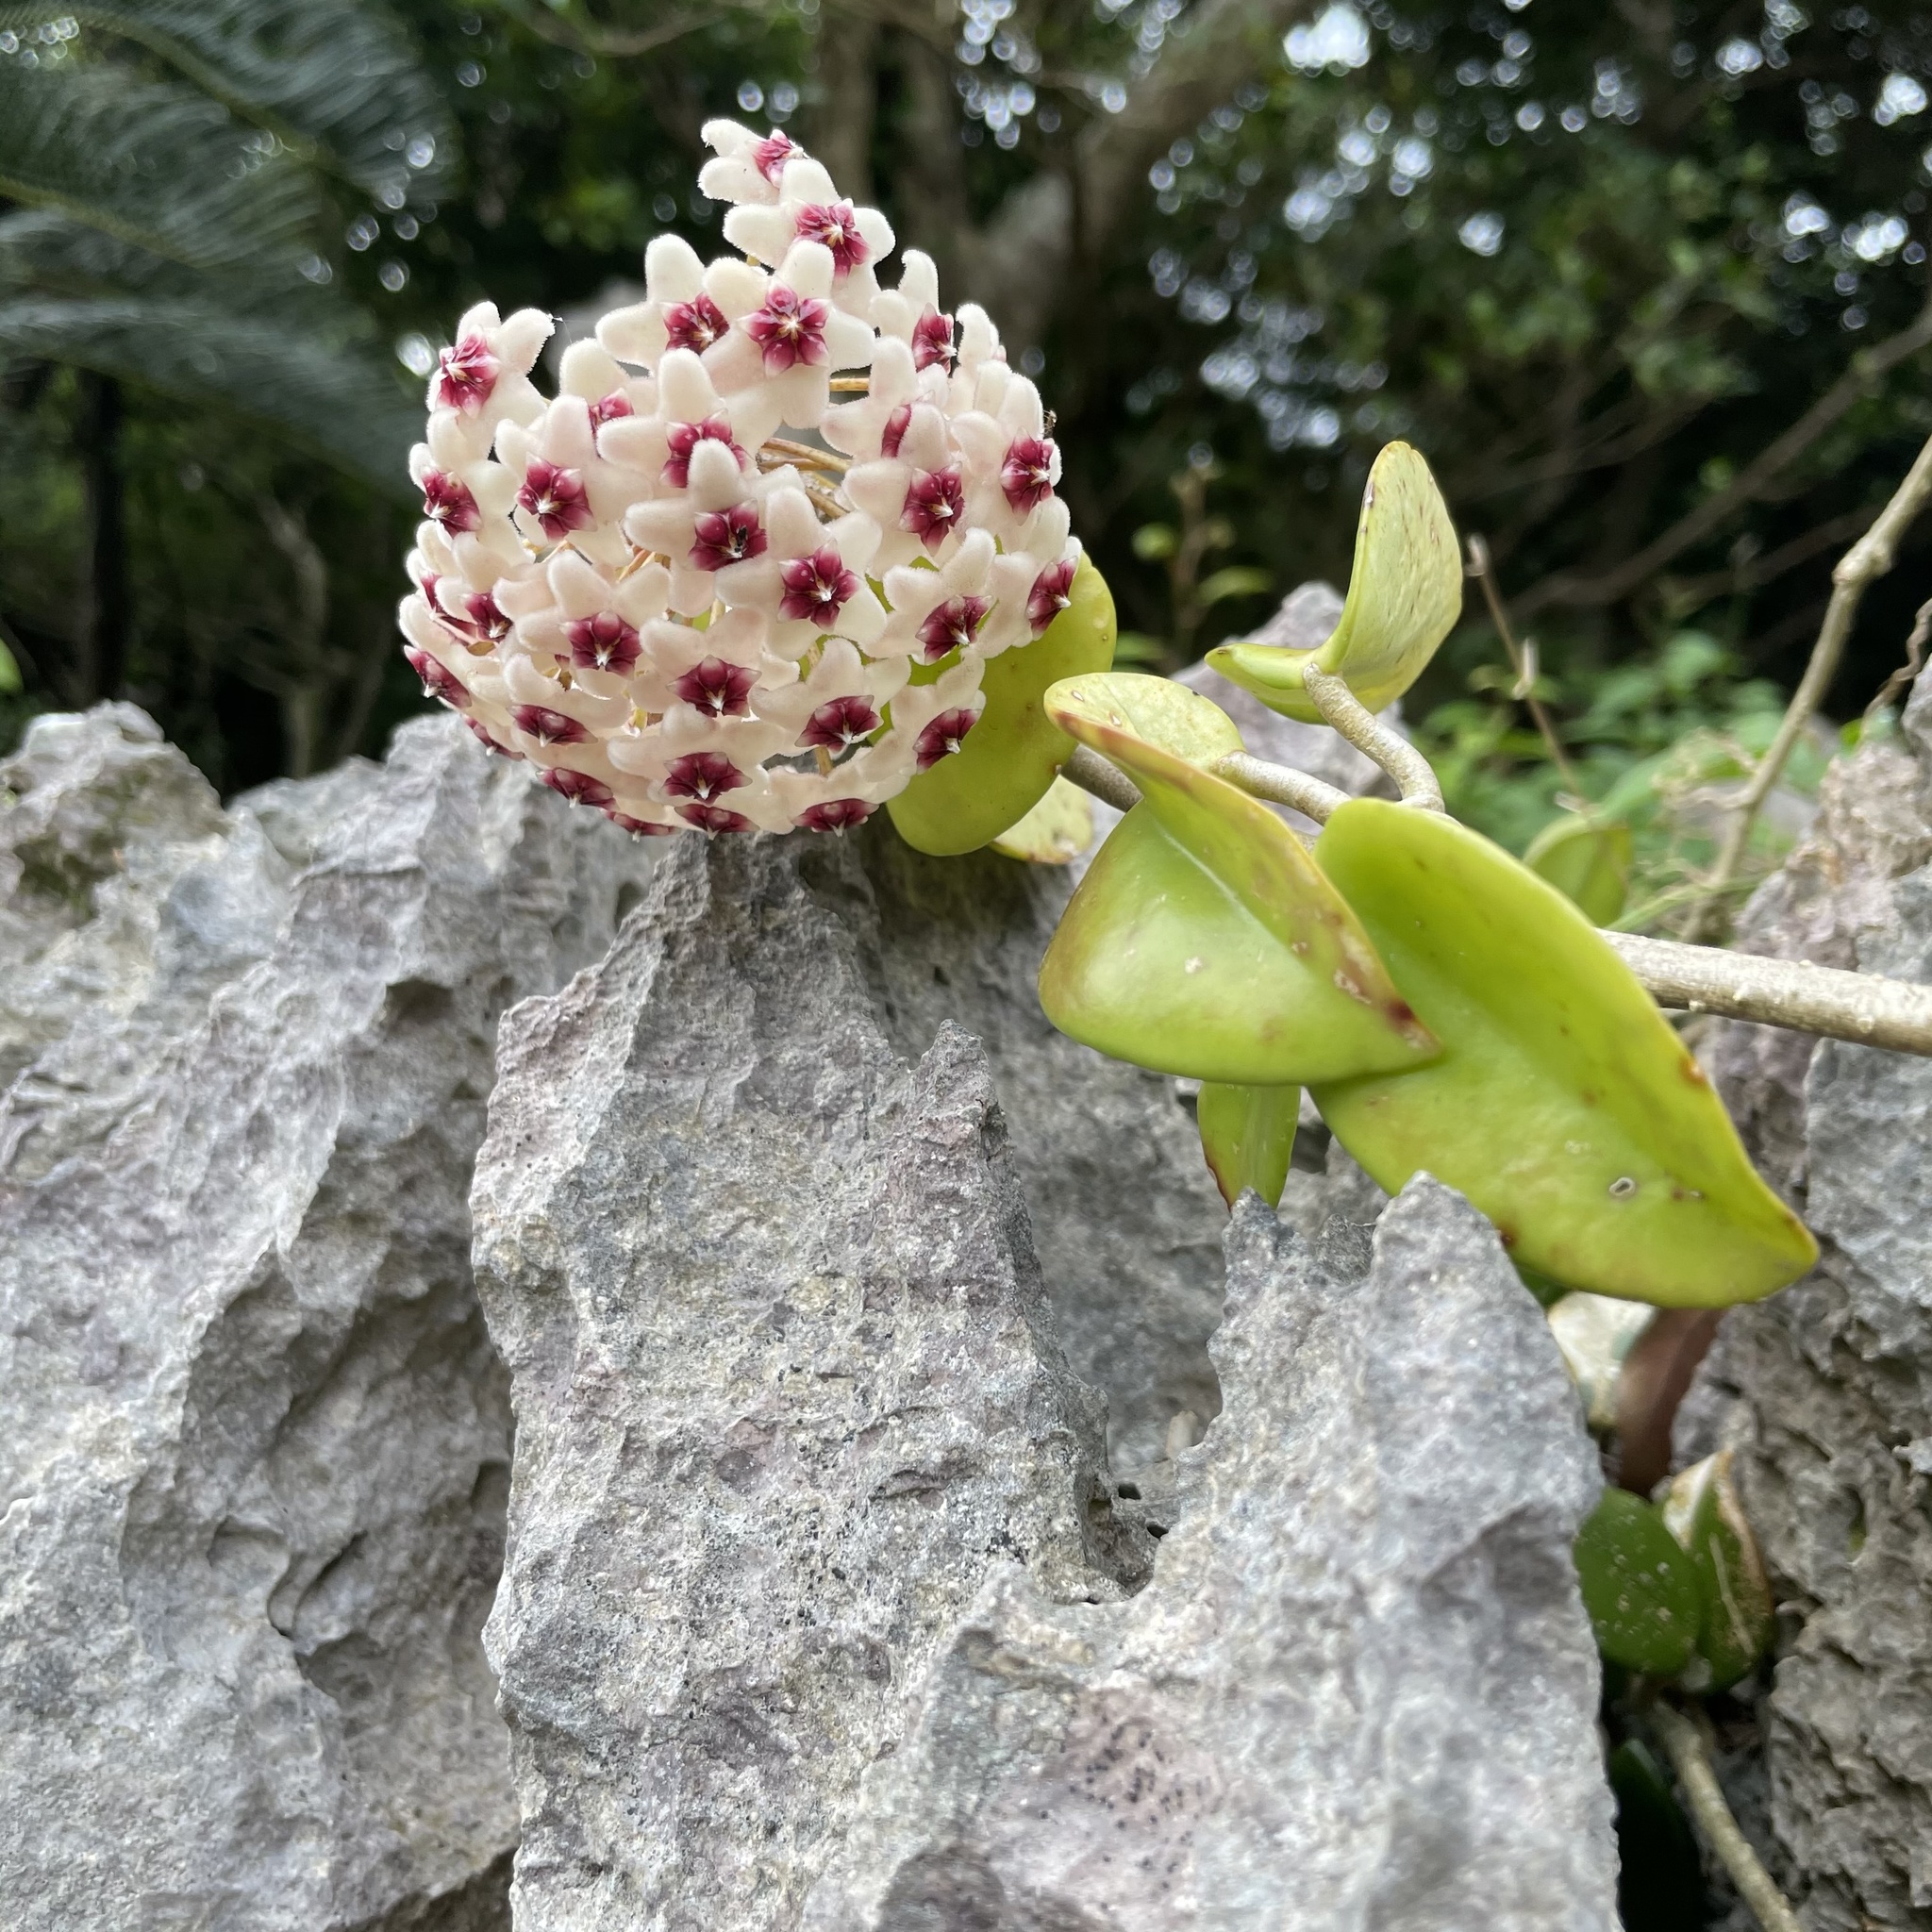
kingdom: Plantae
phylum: Tracheophyta
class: Magnoliopsida
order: Gentianales
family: Apocynaceae
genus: Hoya
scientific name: Hoya carnosa
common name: Honeyplant
